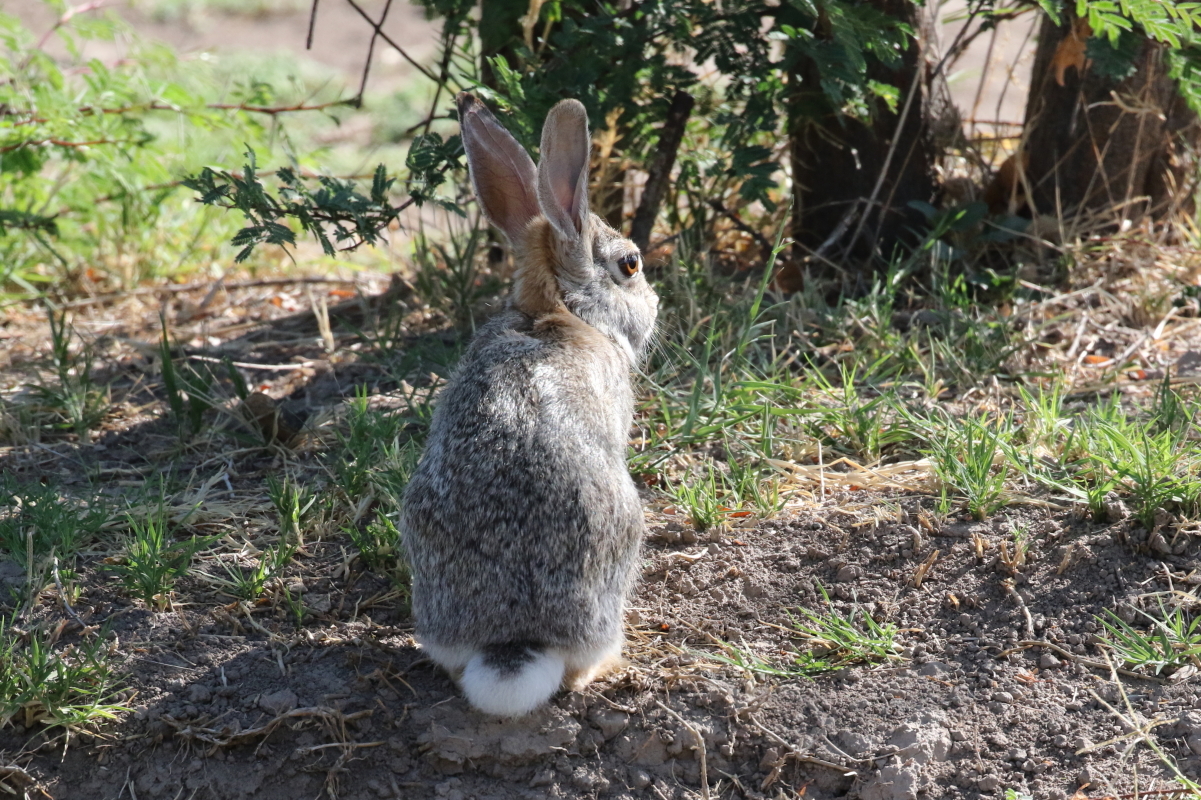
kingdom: Animalia
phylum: Chordata
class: Mammalia
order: Lagomorpha
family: Leporidae
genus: Sylvilagus
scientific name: Sylvilagus audubonii
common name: Desert cottontail
